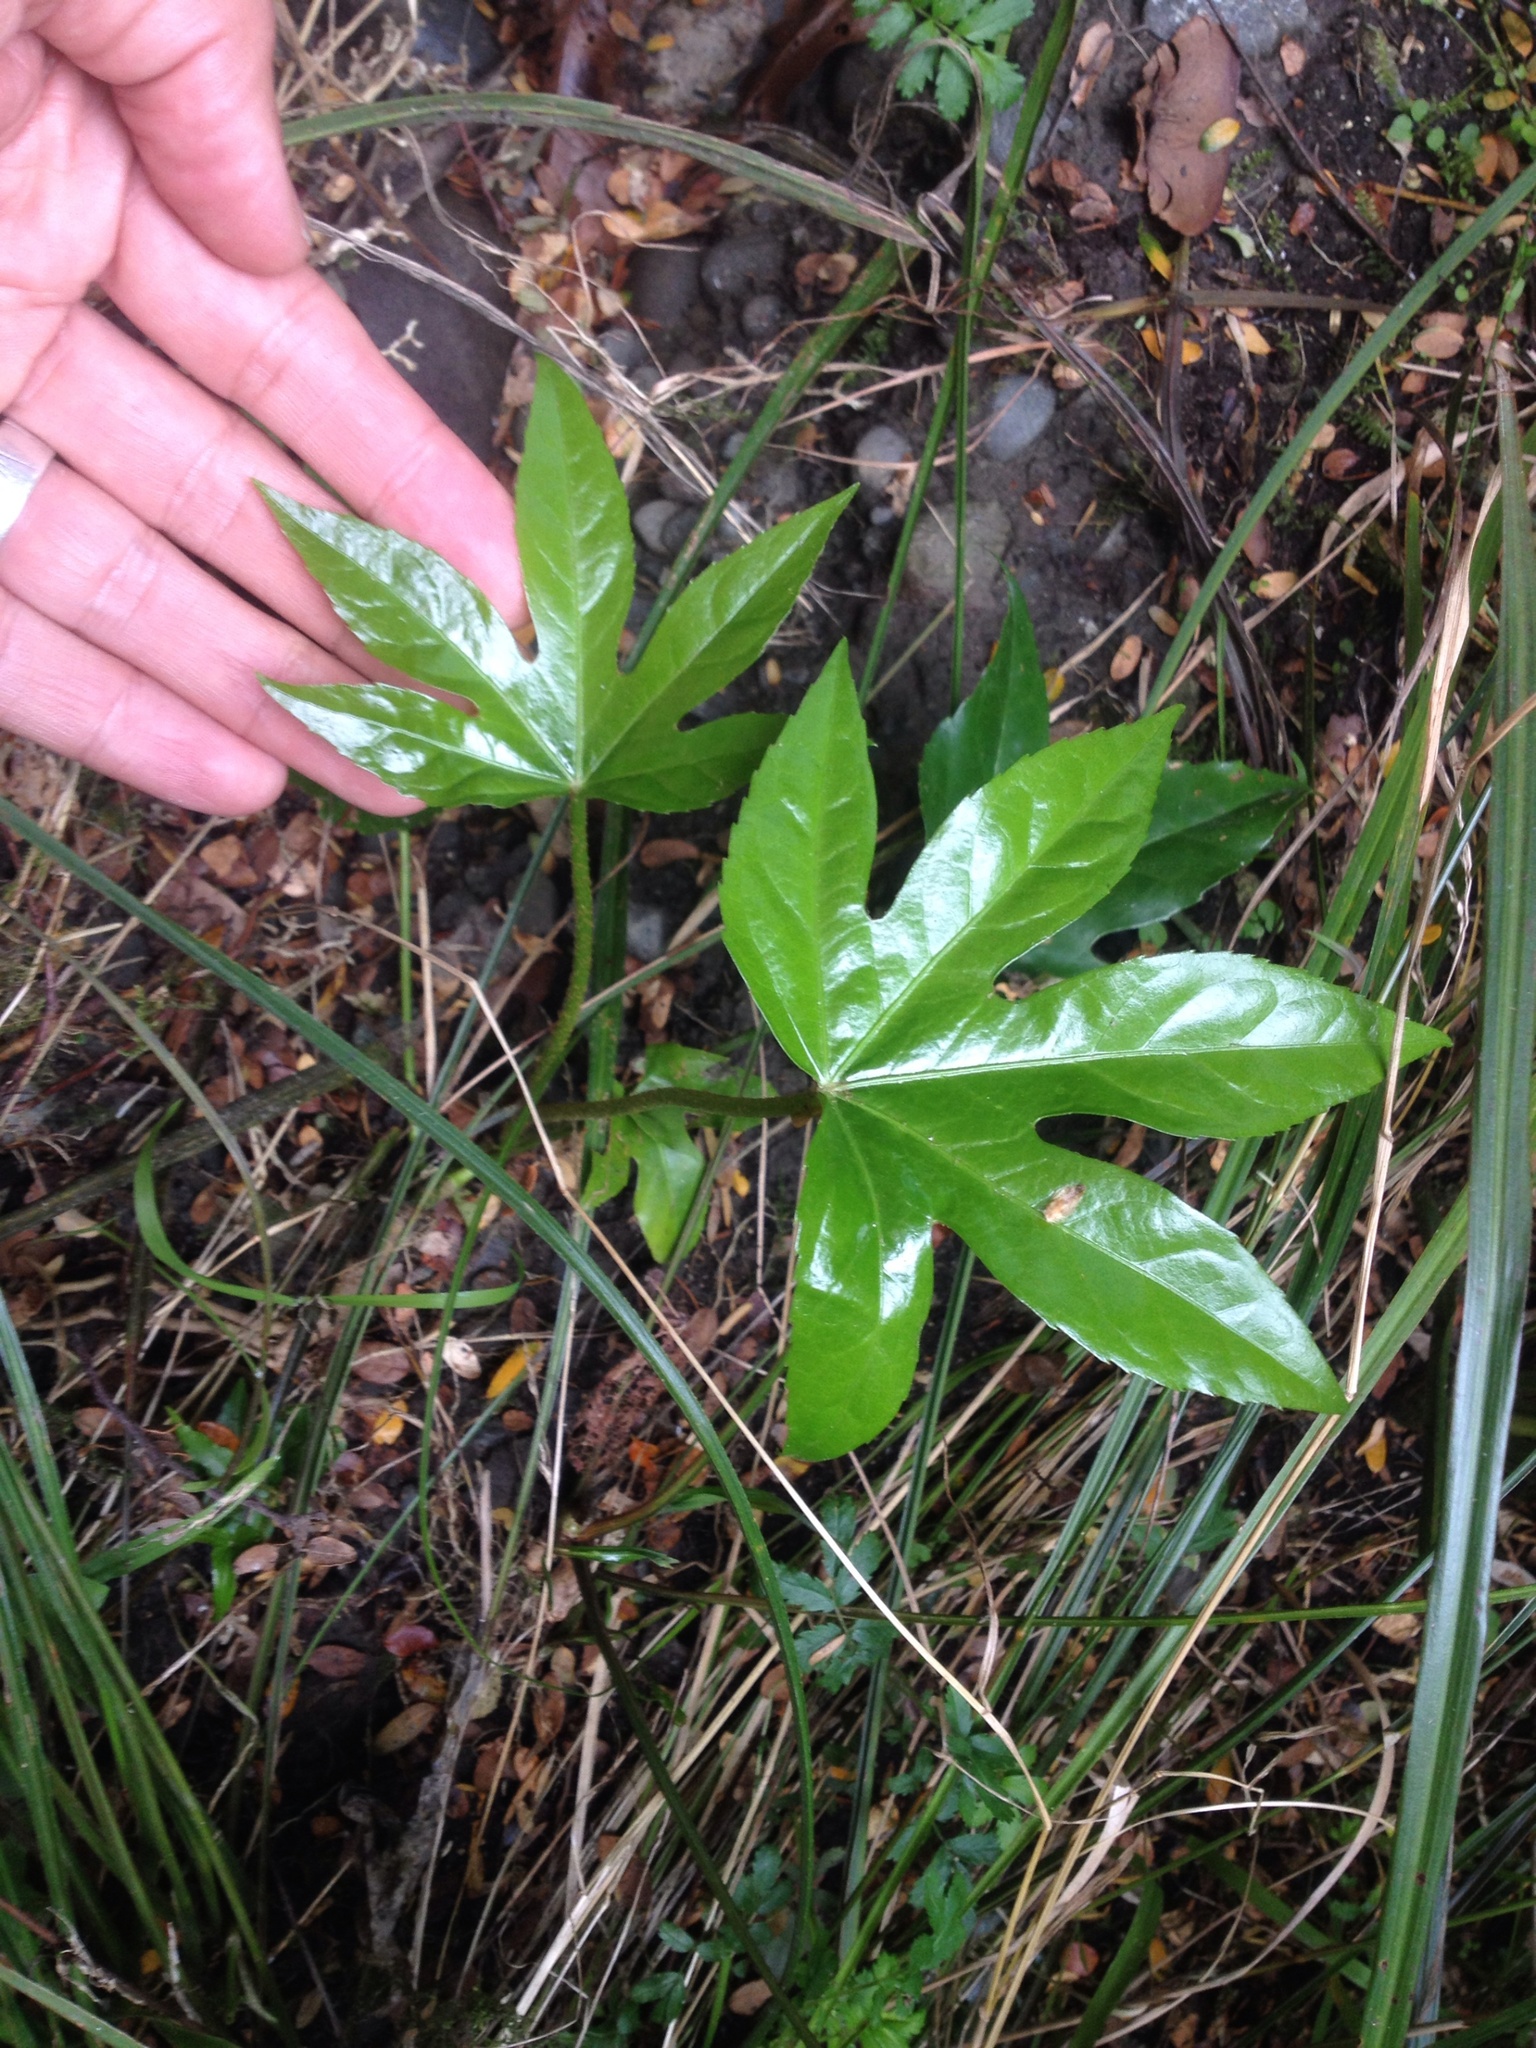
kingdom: Plantae
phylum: Tracheophyta
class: Magnoliopsida
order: Apiales
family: Araliaceae
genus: Fatsia
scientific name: Fatsia japonica
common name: Fatsia
